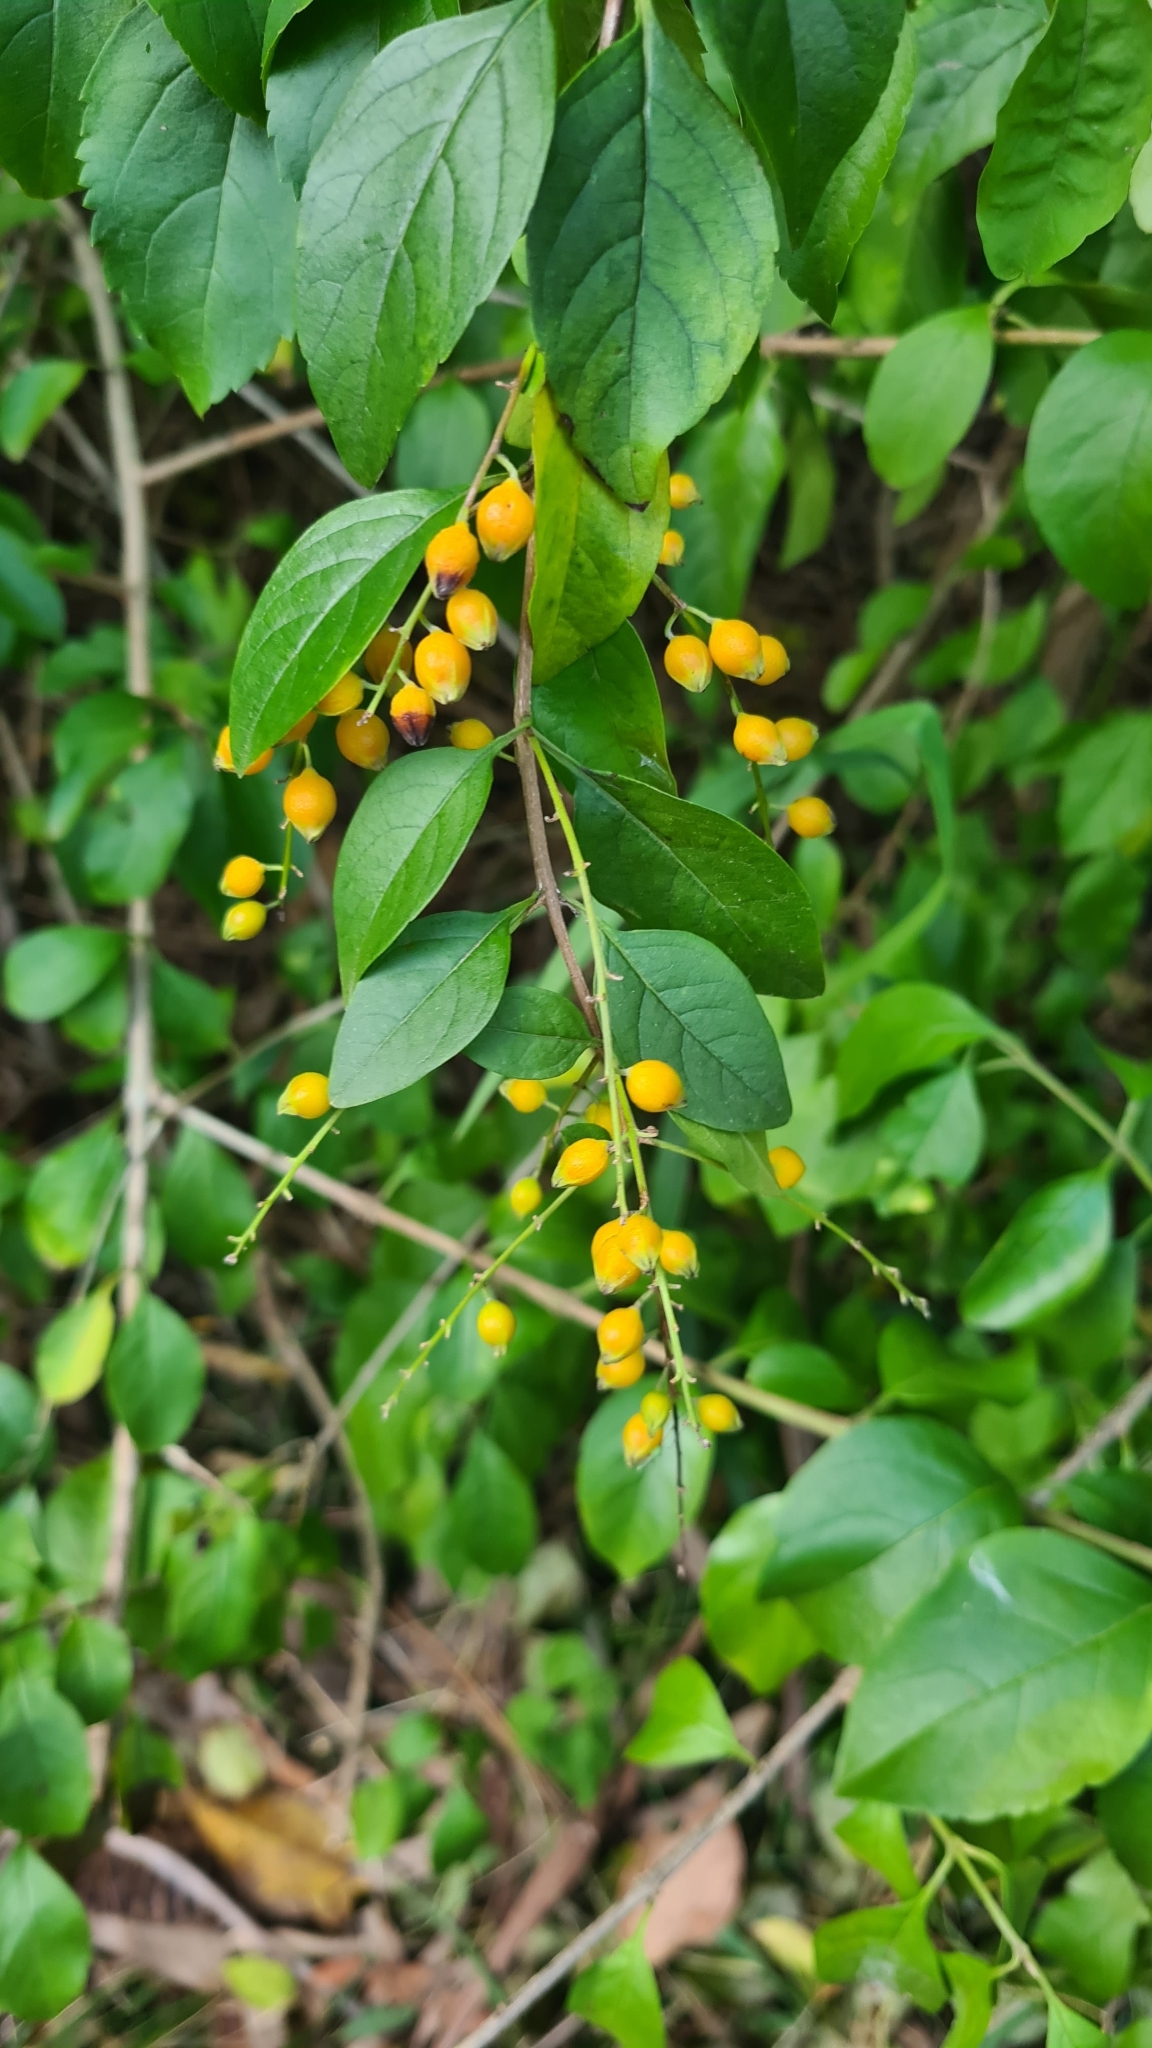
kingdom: Plantae
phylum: Tracheophyta
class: Magnoliopsida
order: Lamiales
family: Verbenaceae
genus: Duranta
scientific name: Duranta erecta
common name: Golden dewdrops
